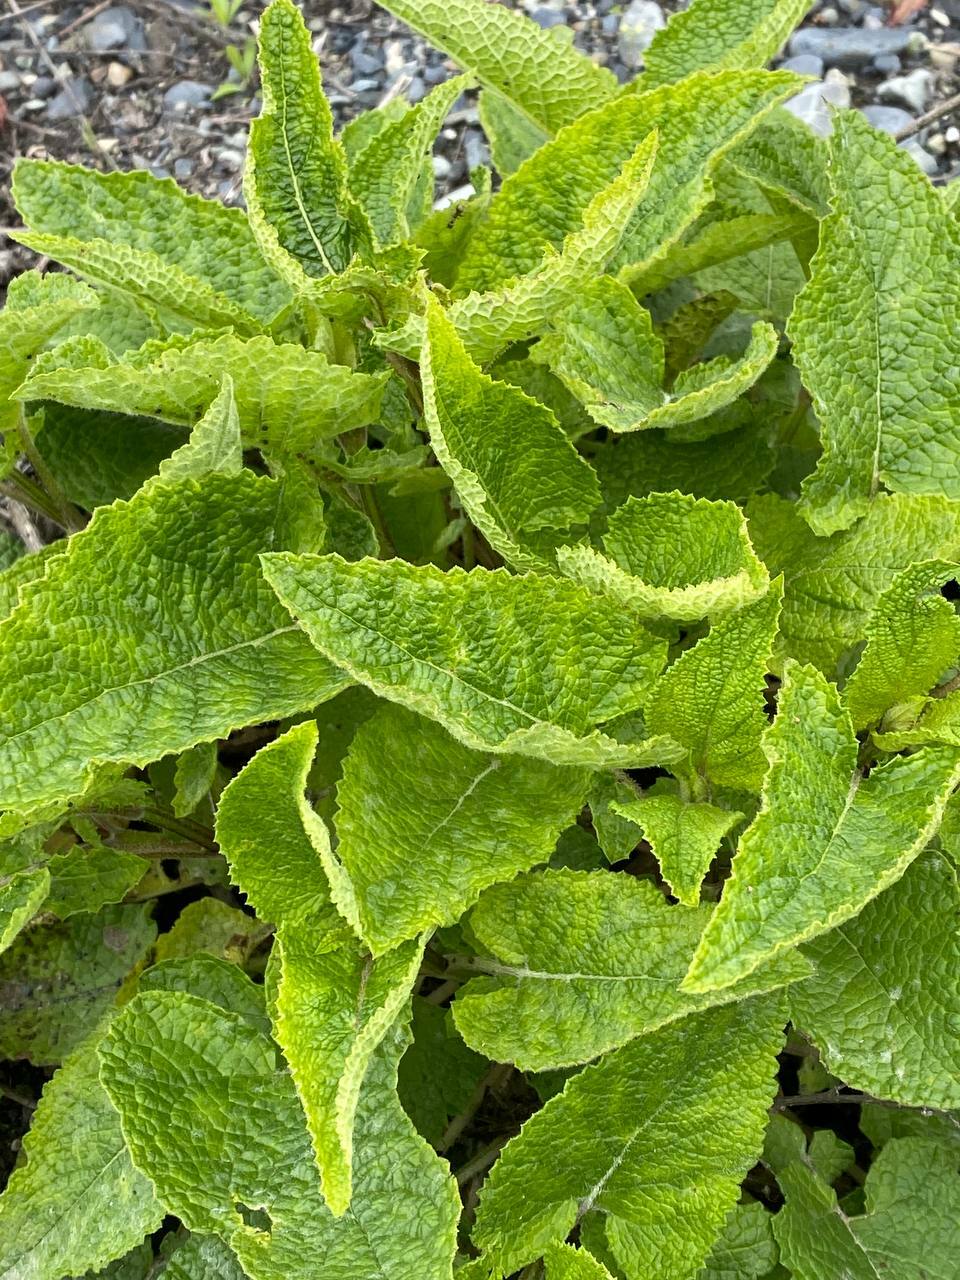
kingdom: Plantae
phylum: Tracheophyta
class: Magnoliopsida
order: Lamiales
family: Plantaginaceae
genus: Digitalis
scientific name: Digitalis purpurea
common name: Foxglove
